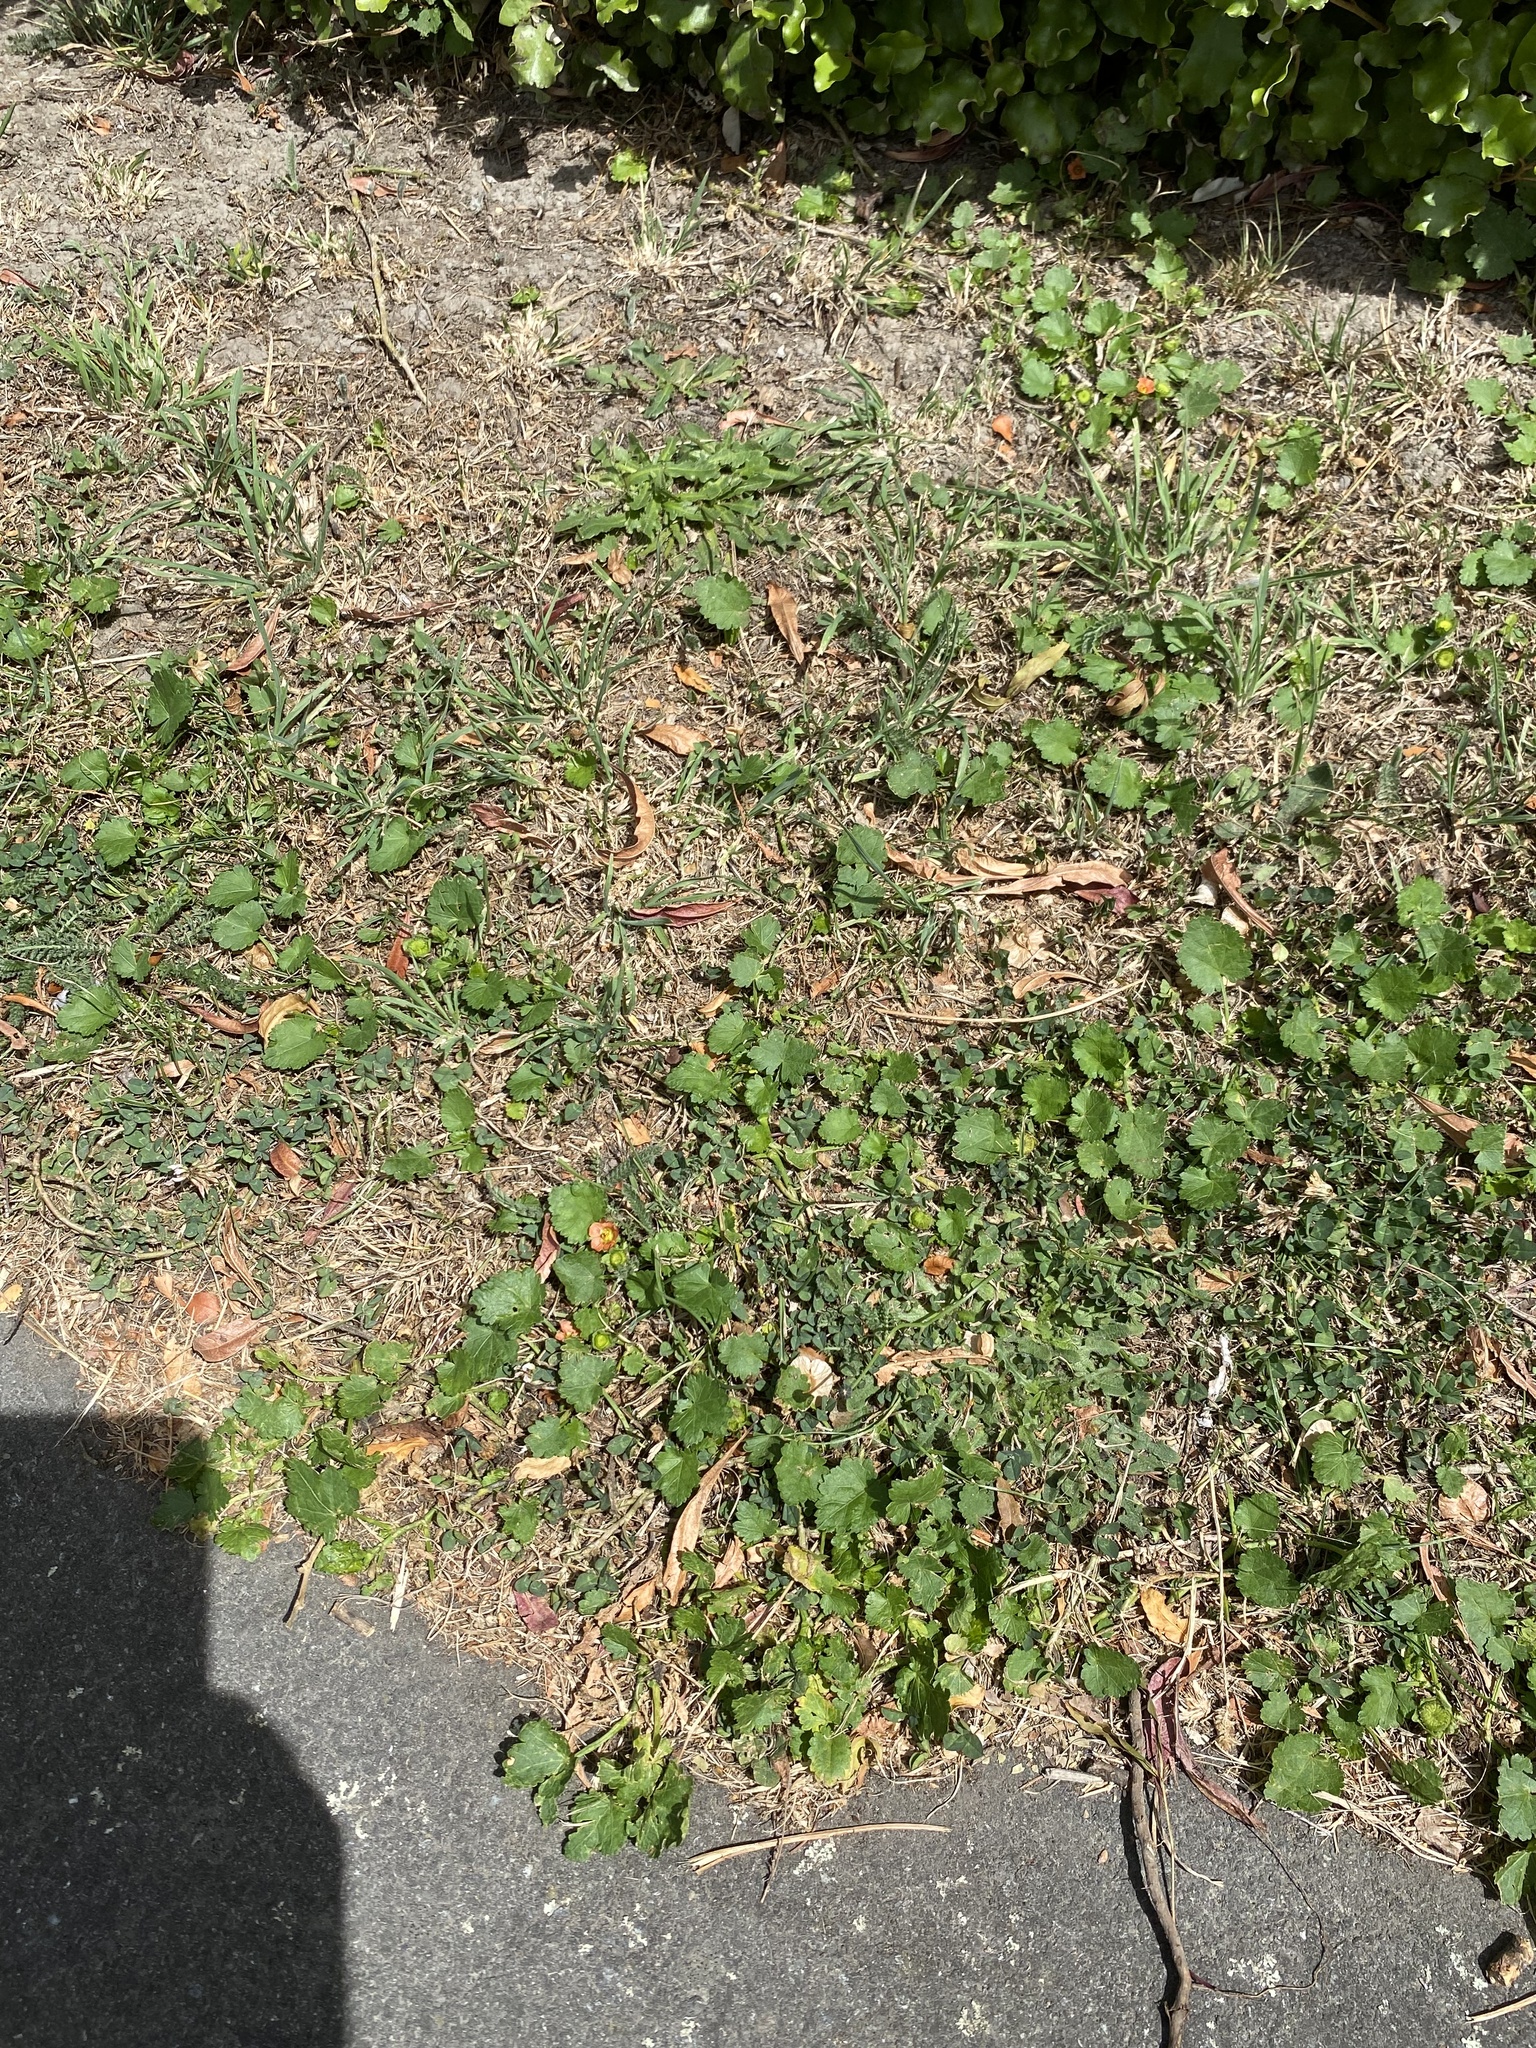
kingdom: Plantae
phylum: Tracheophyta
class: Magnoliopsida
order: Malvales
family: Malvaceae
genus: Modiola
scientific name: Modiola caroliniana
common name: Carolina bristlemallow
